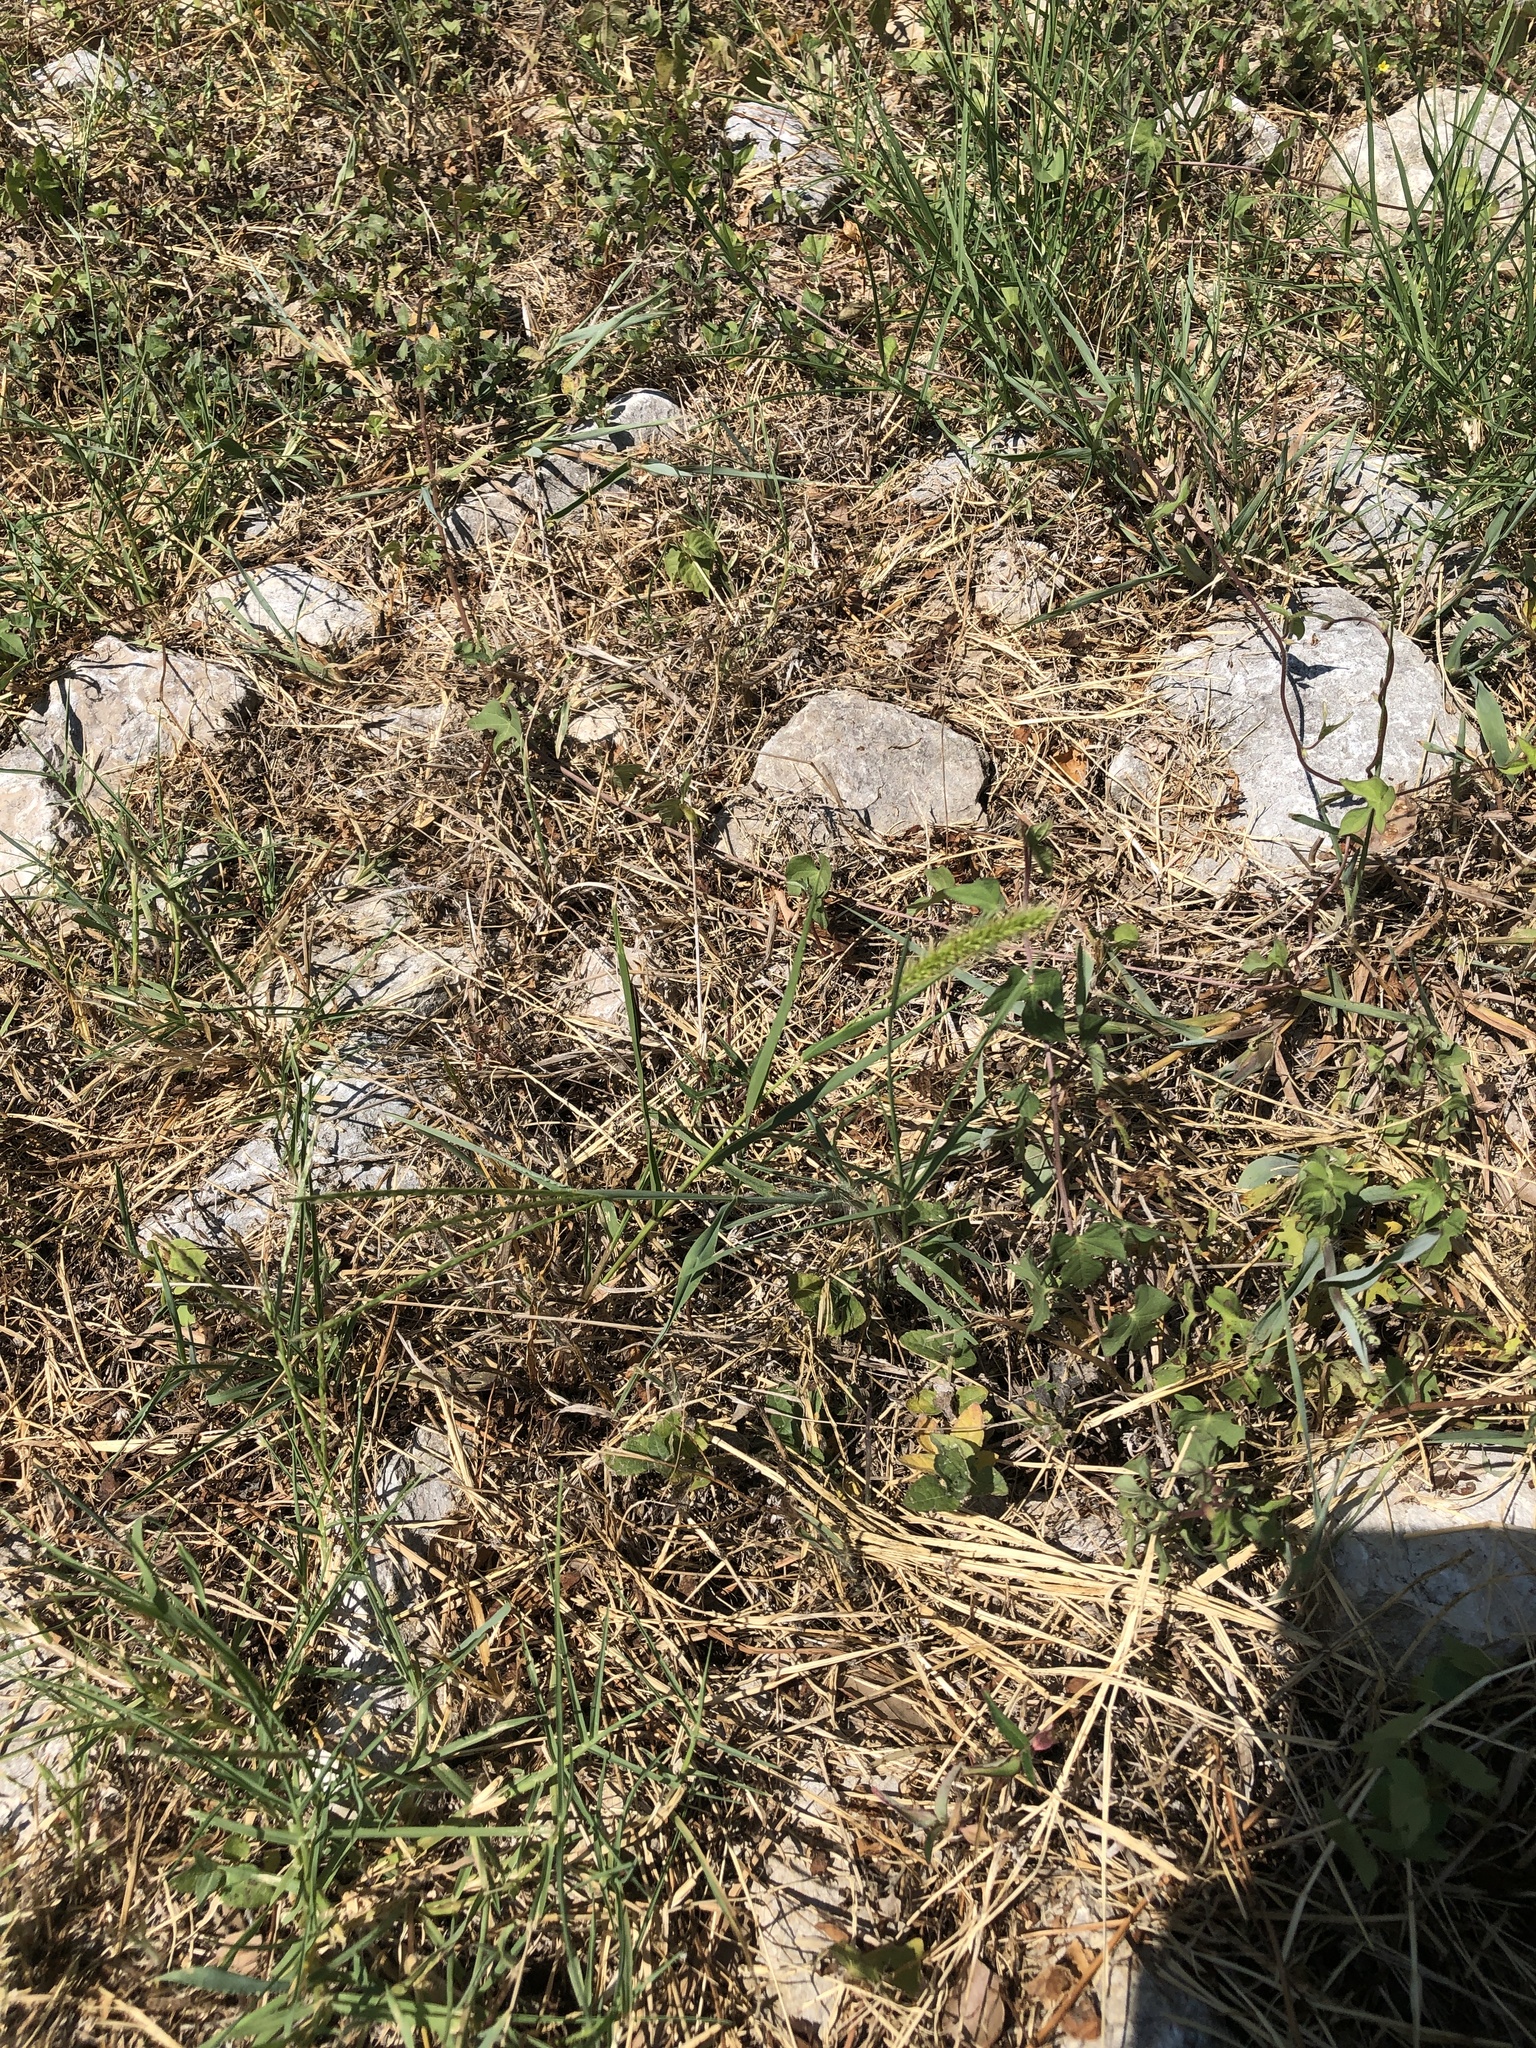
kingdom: Plantae
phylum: Tracheophyta
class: Liliopsida
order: Poales
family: Poaceae
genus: Setaria
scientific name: Setaria viridis
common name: Green bristlegrass
